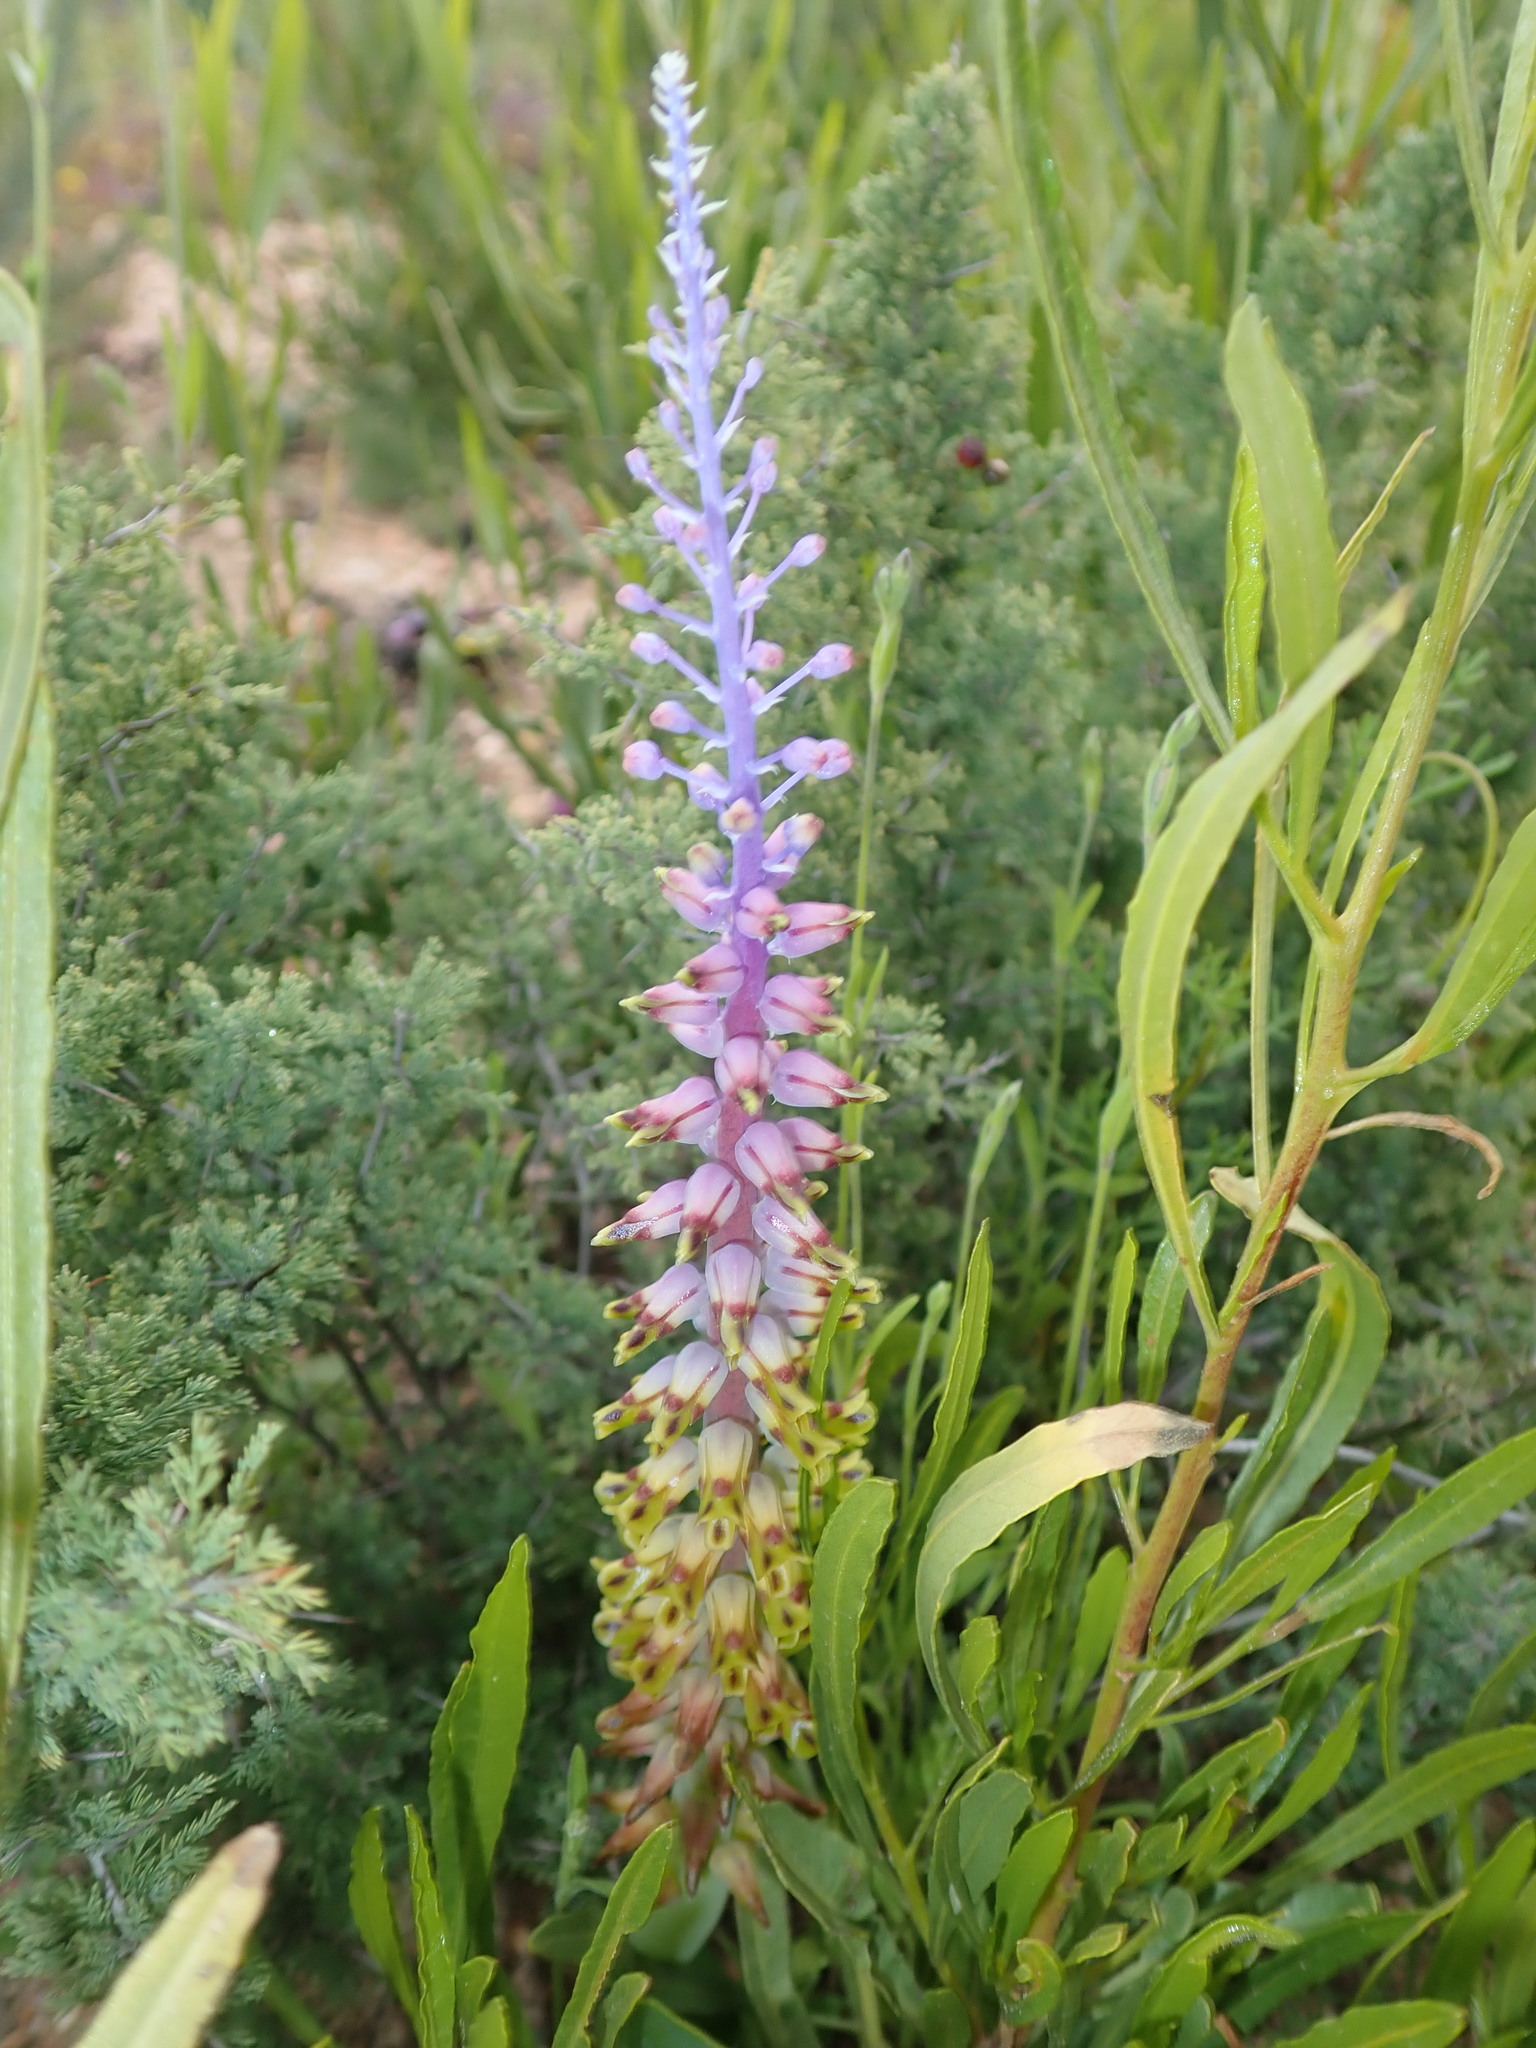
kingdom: Plantae
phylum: Tracheophyta
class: Liliopsida
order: Asparagales
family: Asparagaceae
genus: Lachenalia
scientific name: Lachenalia mutabilis
